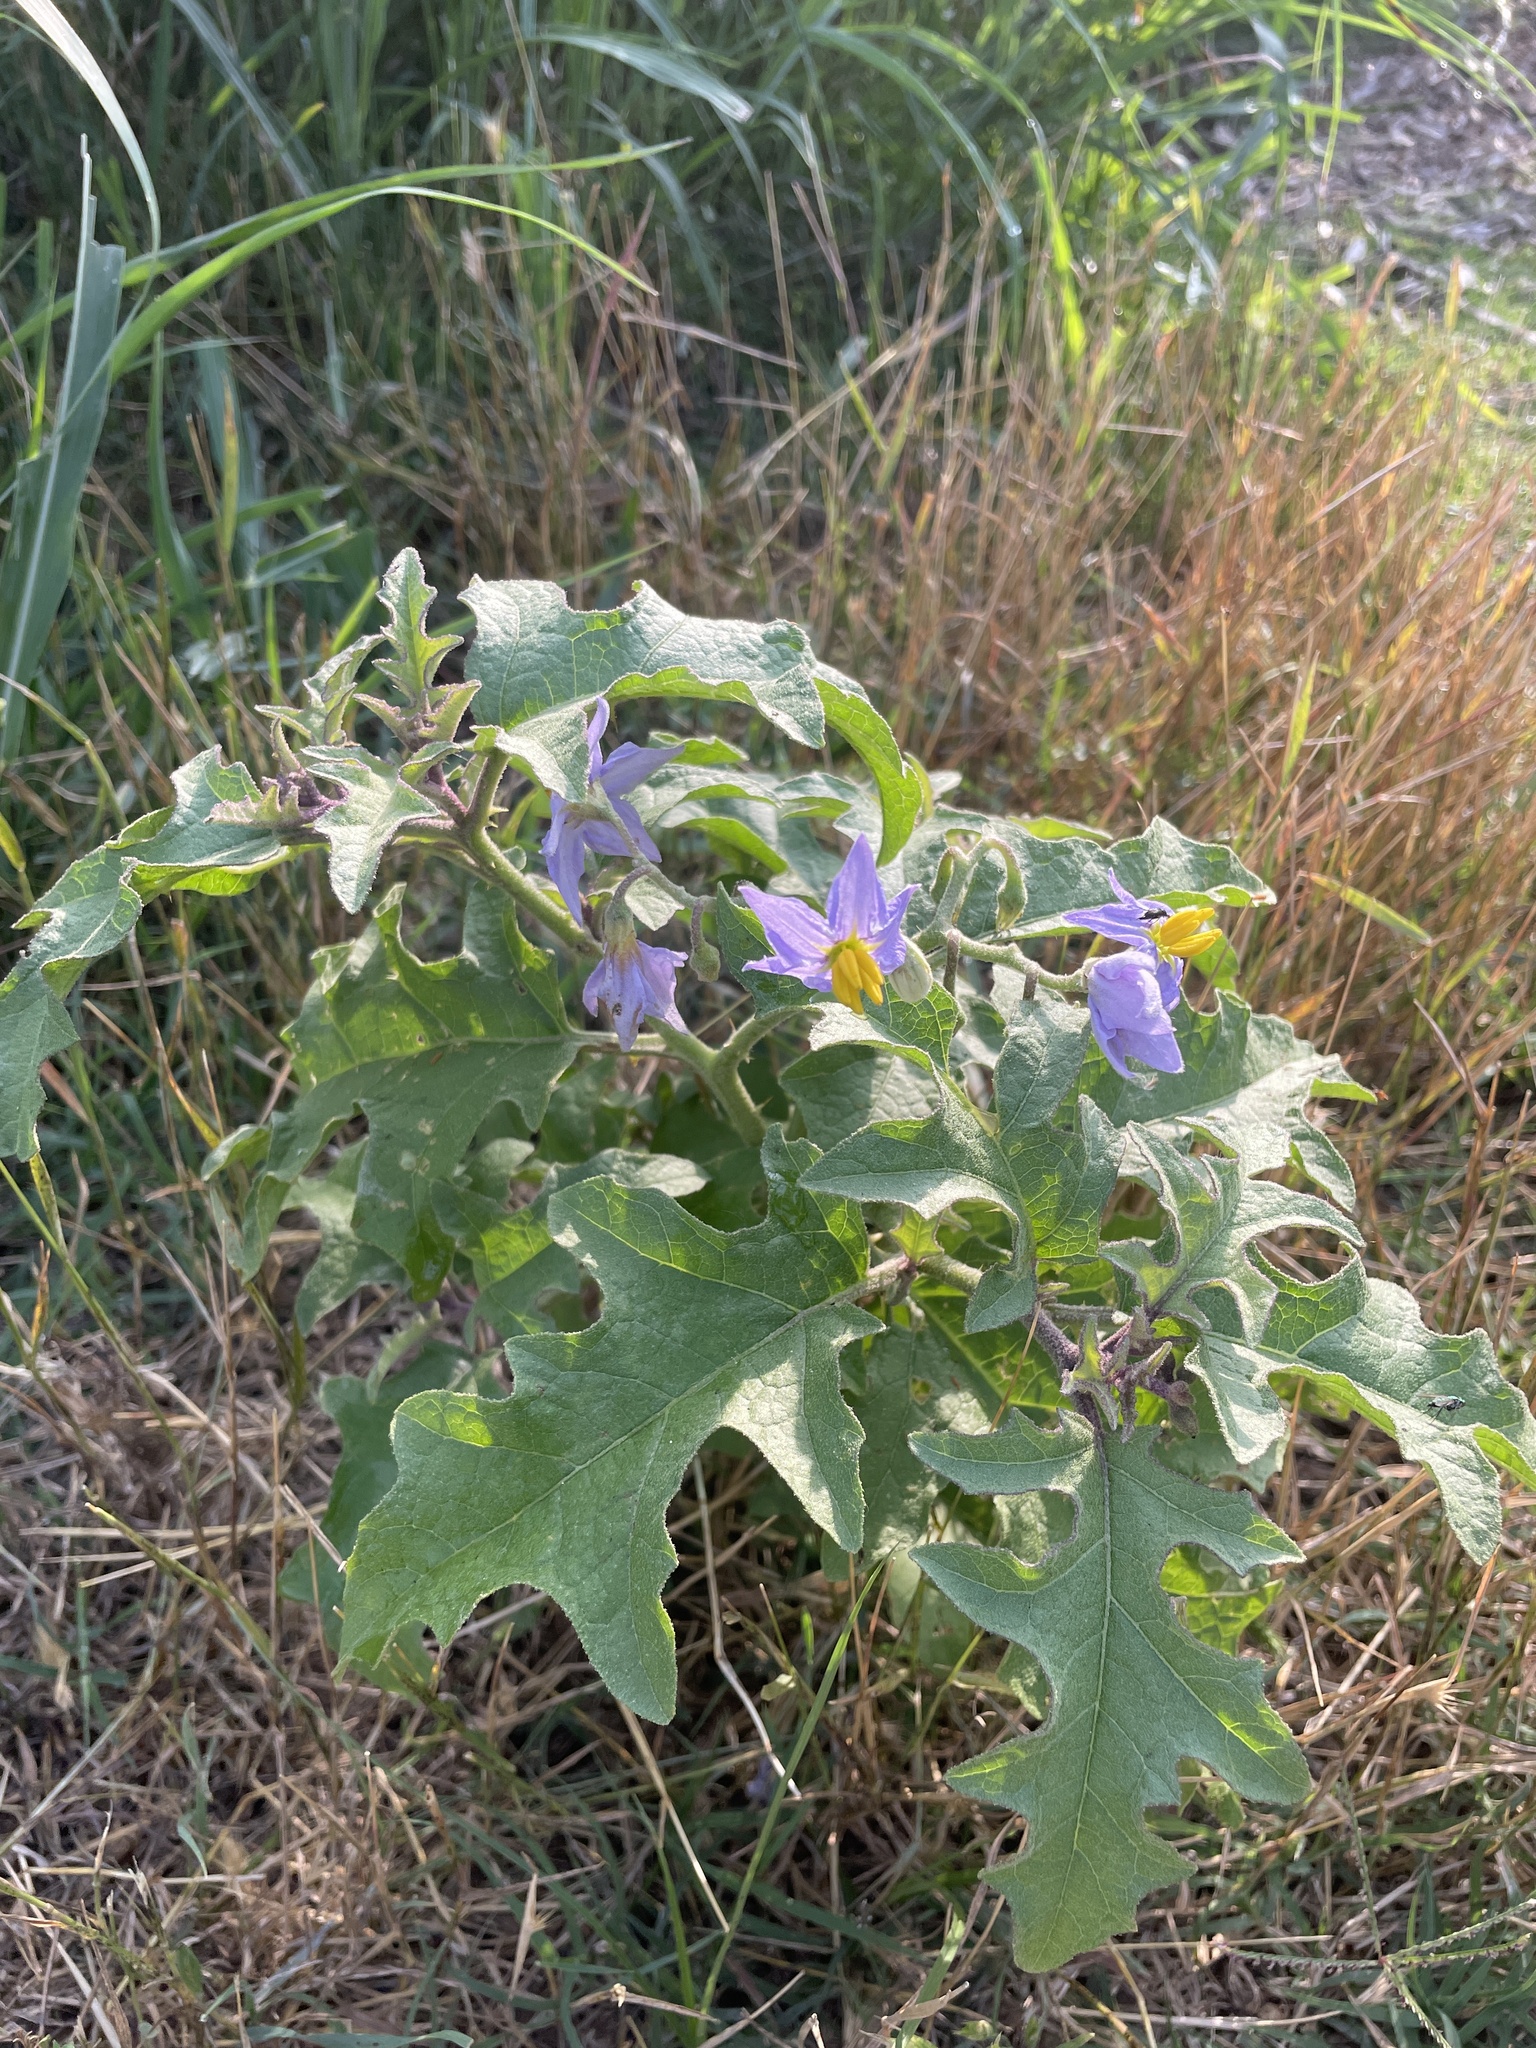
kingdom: Plantae
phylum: Tracheophyta
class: Magnoliopsida
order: Solanales
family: Solanaceae
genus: Solanum
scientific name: Solanum dimidiatum
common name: Carolina horse-nettle
